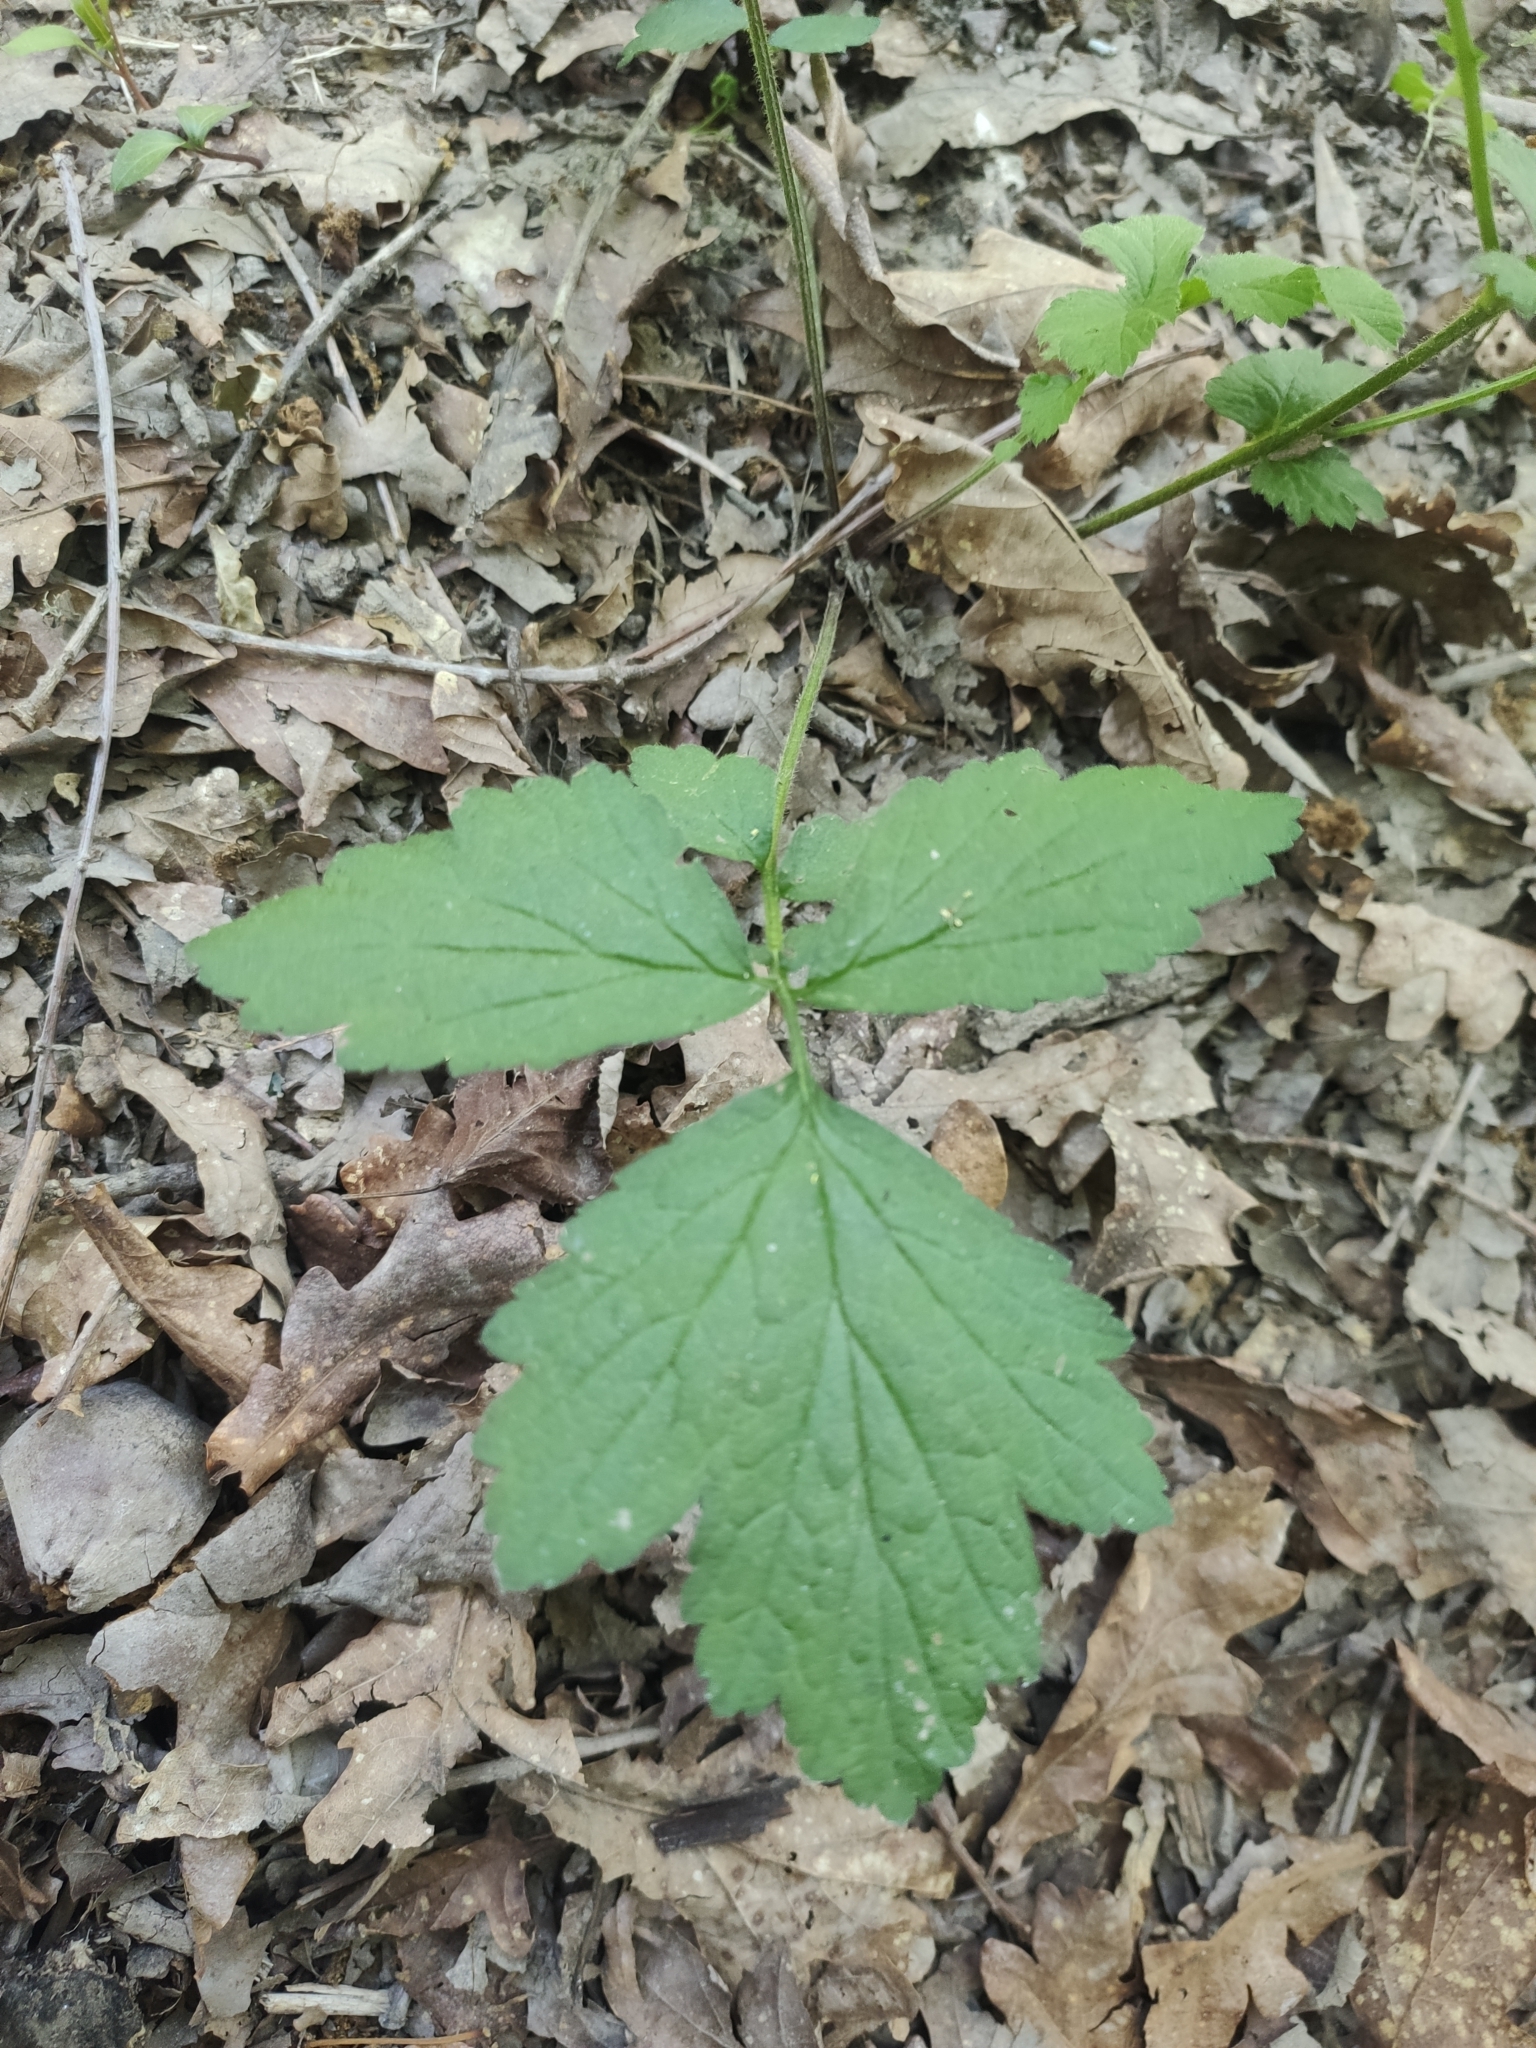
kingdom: Plantae
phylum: Tracheophyta
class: Magnoliopsida
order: Rosales
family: Rosaceae
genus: Geum
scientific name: Geum urbanum
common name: Wood avens
